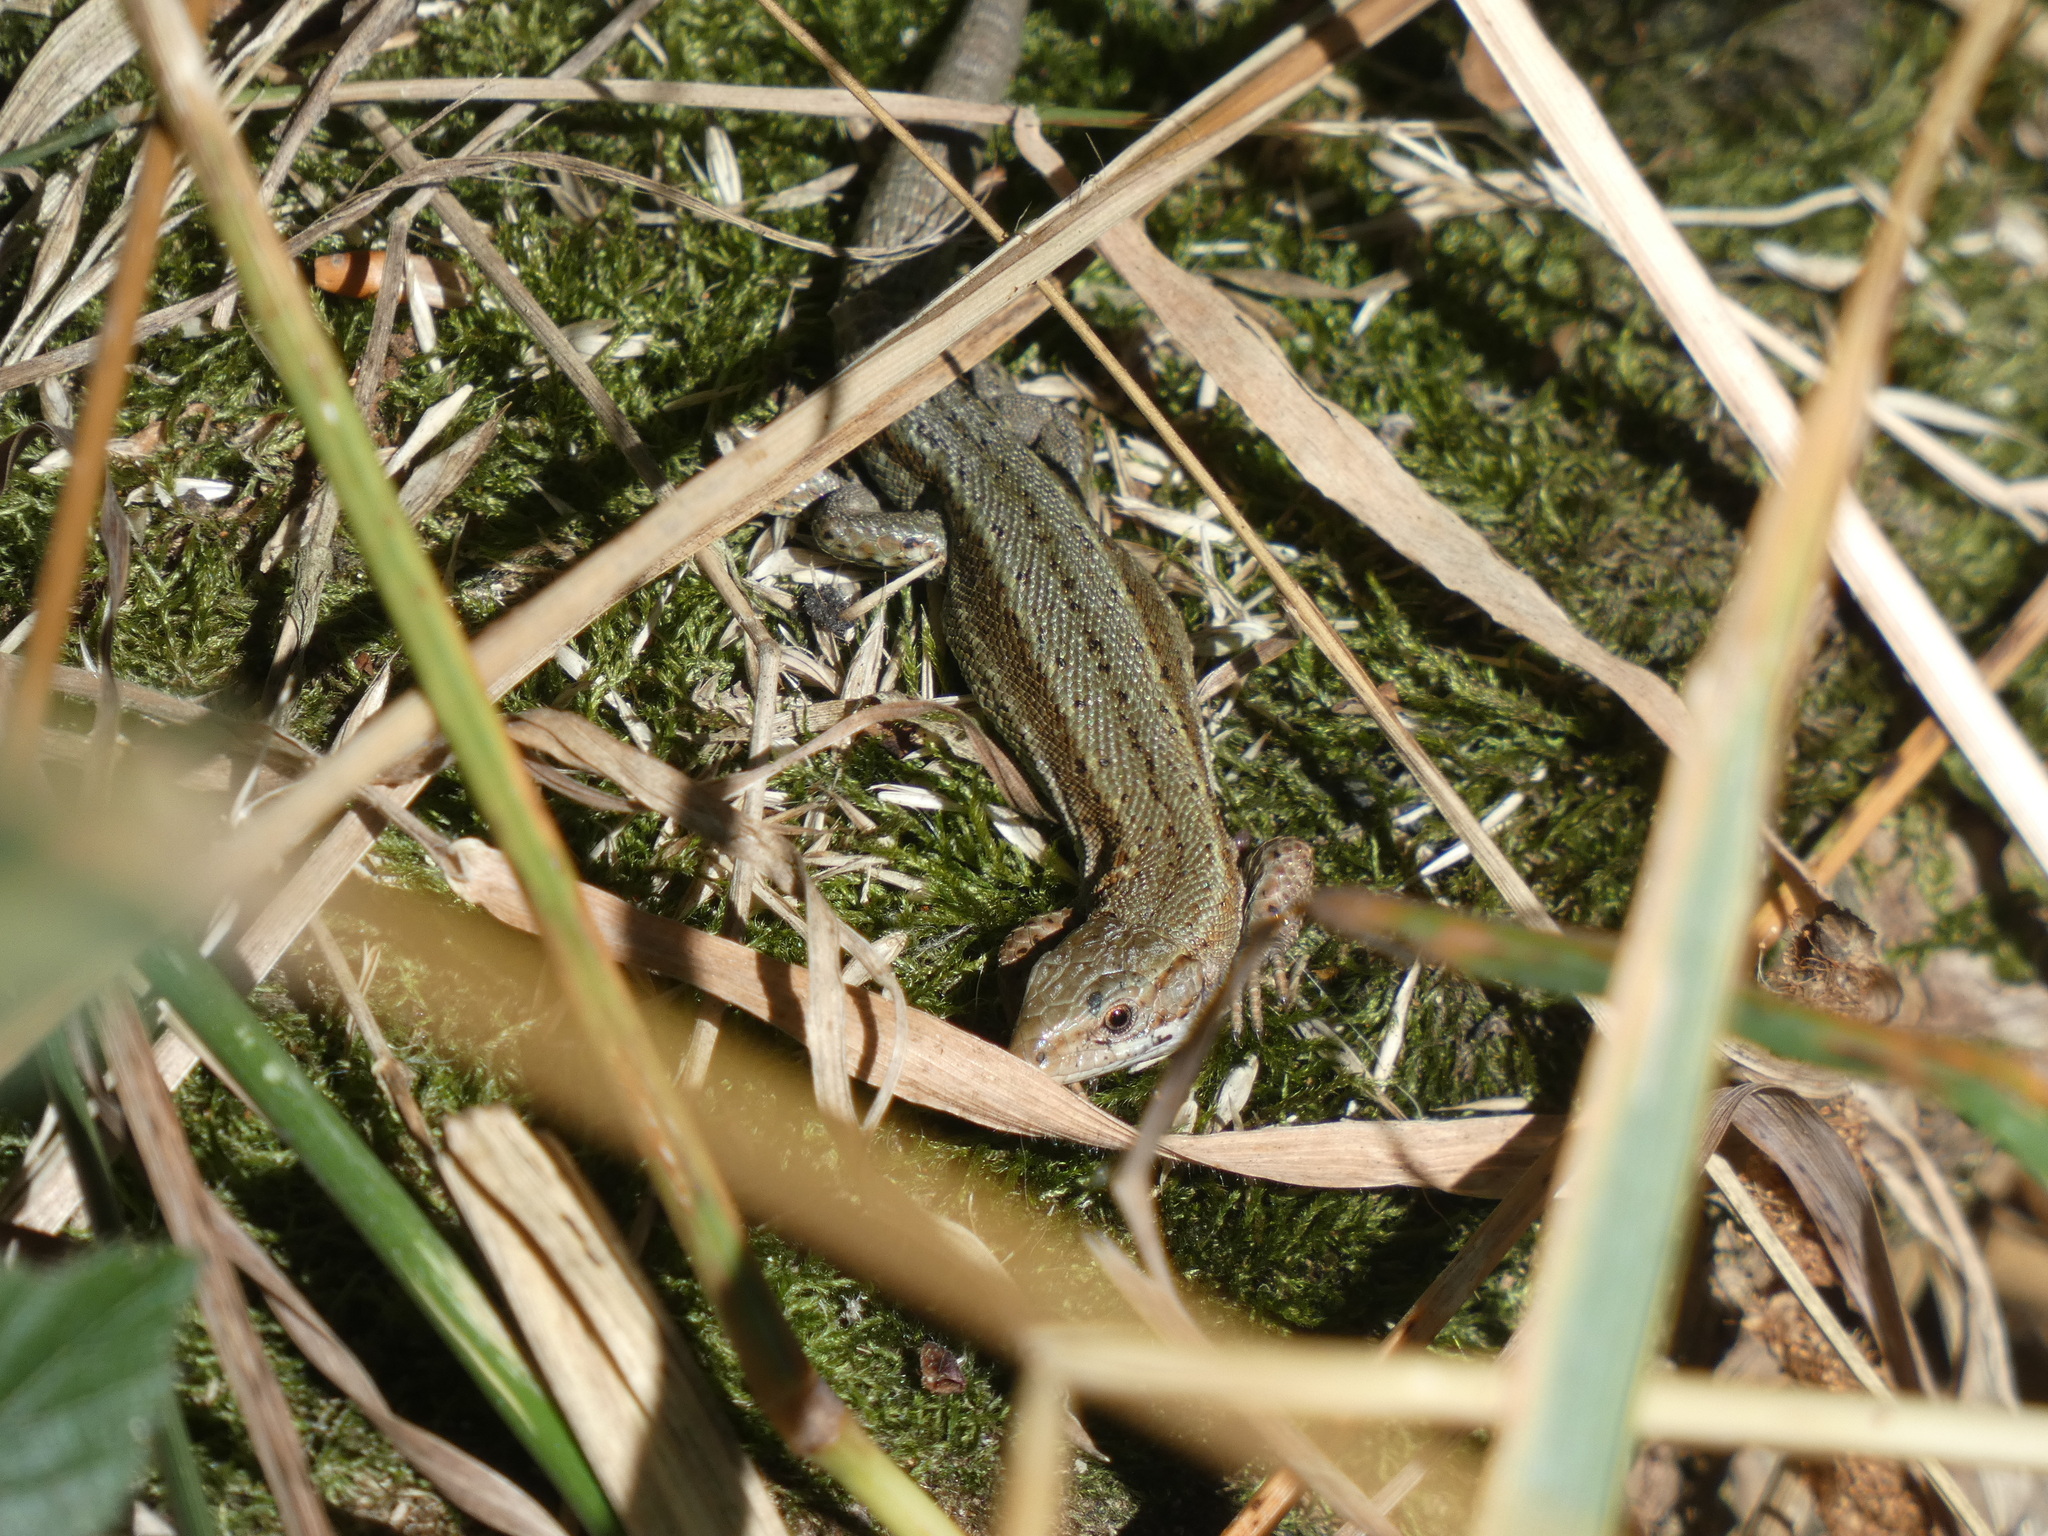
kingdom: Animalia
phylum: Chordata
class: Squamata
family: Lacertidae
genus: Zootoca
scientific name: Zootoca vivipara
